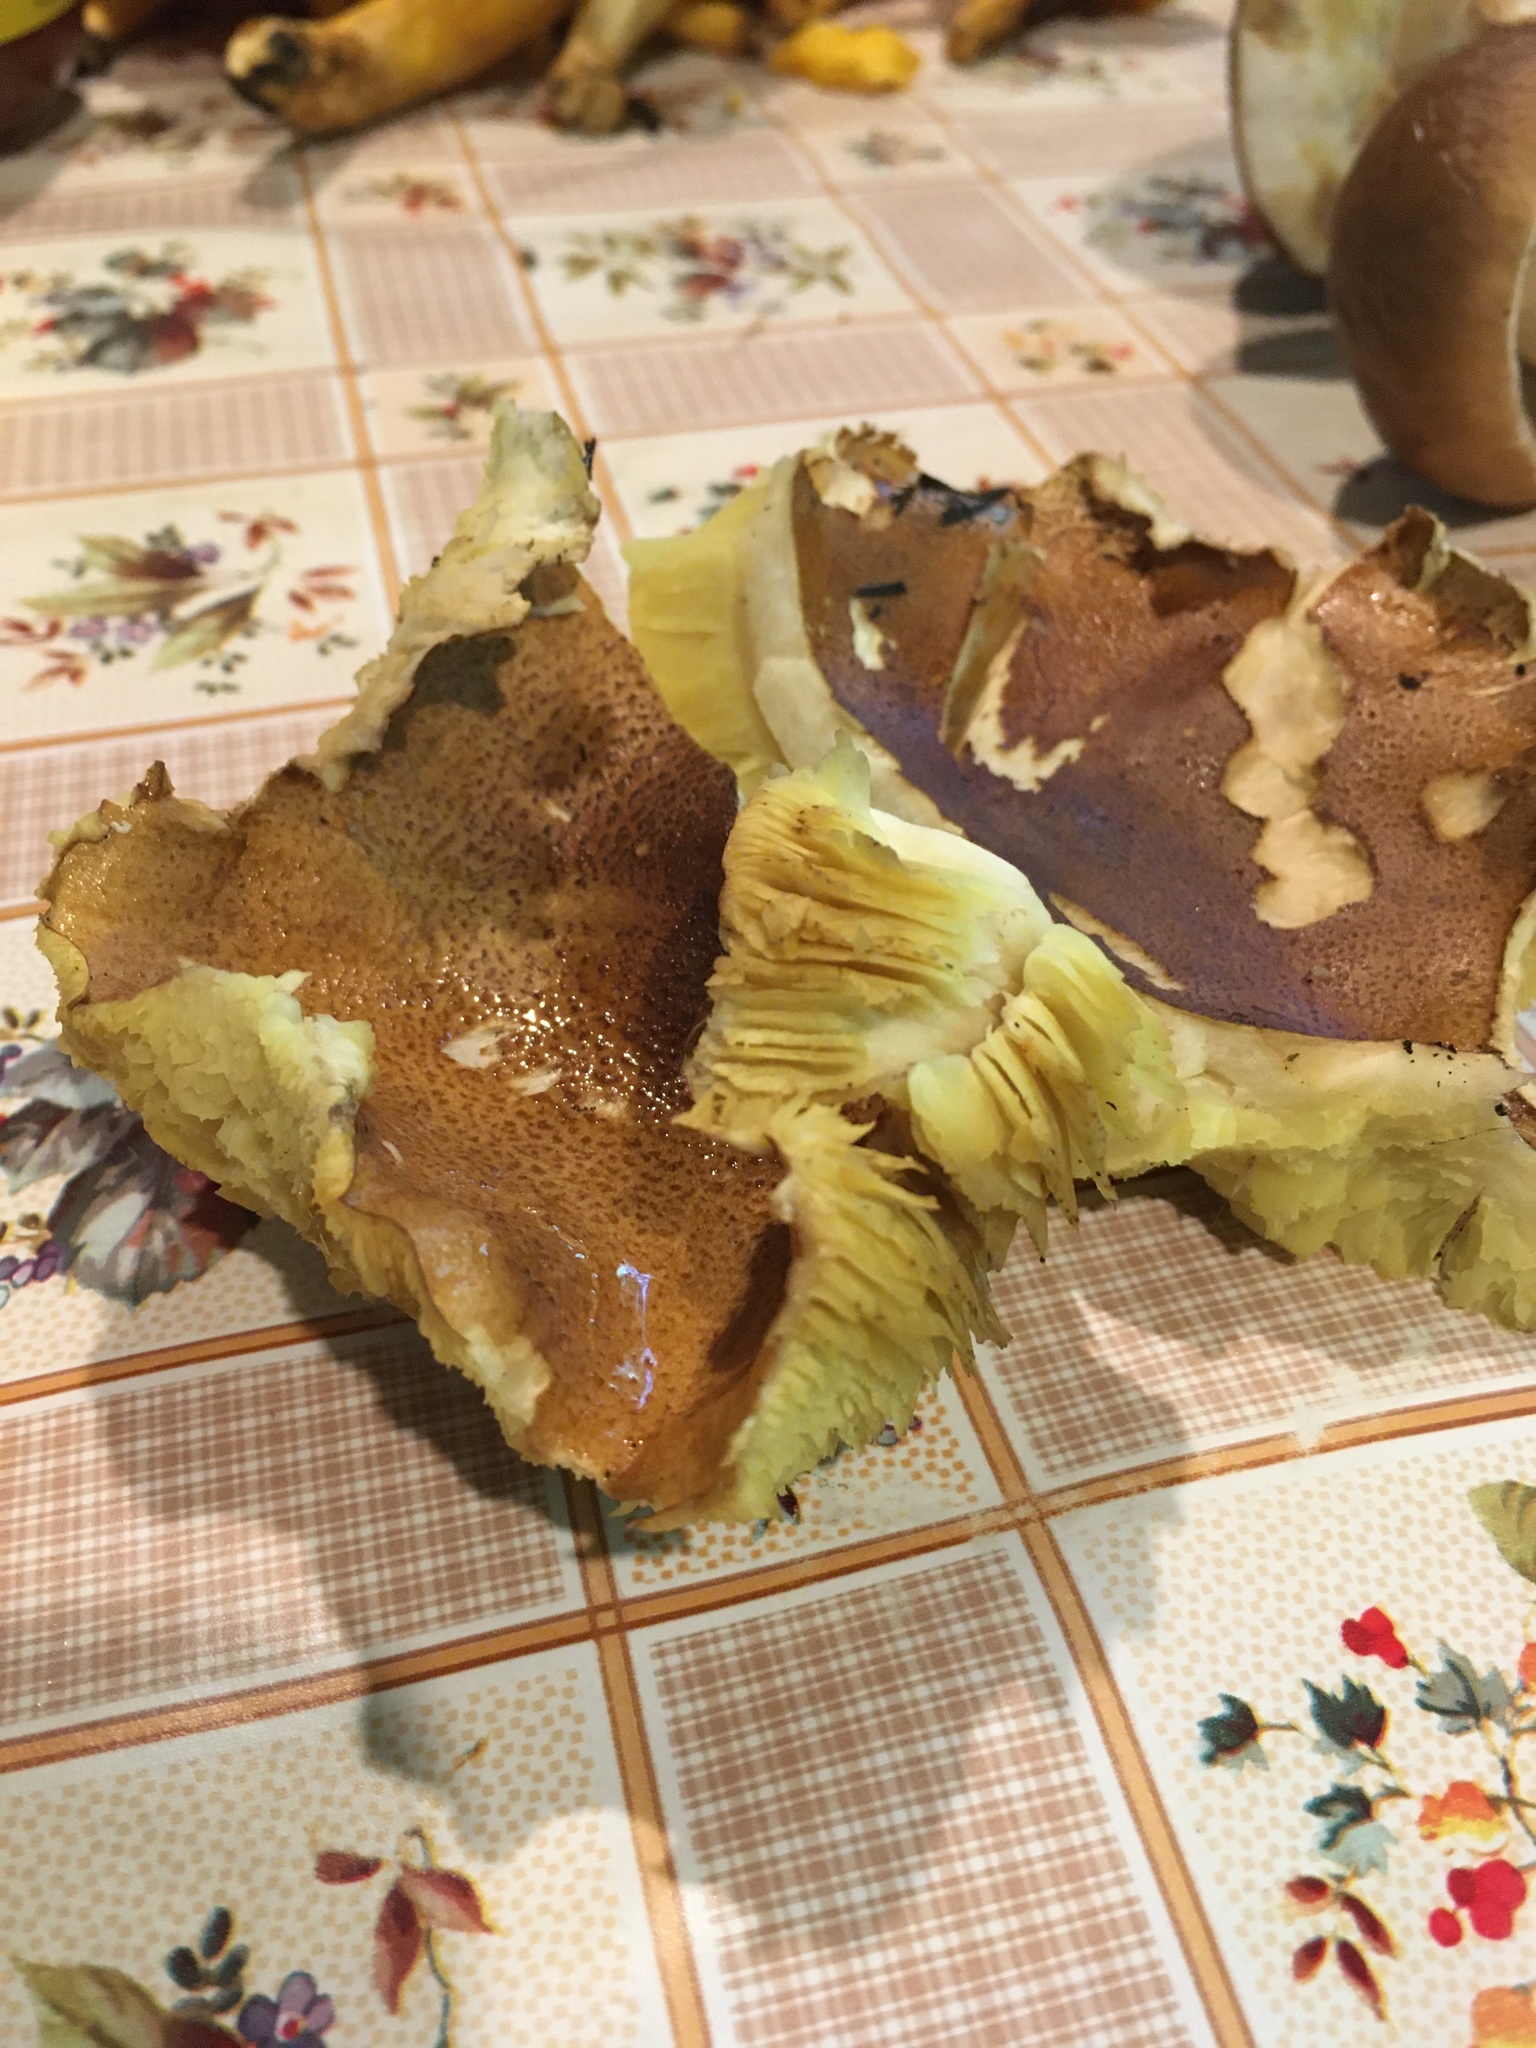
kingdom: Fungi
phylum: Basidiomycota
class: Agaricomycetes
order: Agaricales
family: Tricholomataceae
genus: Tricholoma
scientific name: Tricholoma equestre
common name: Yellow knight
